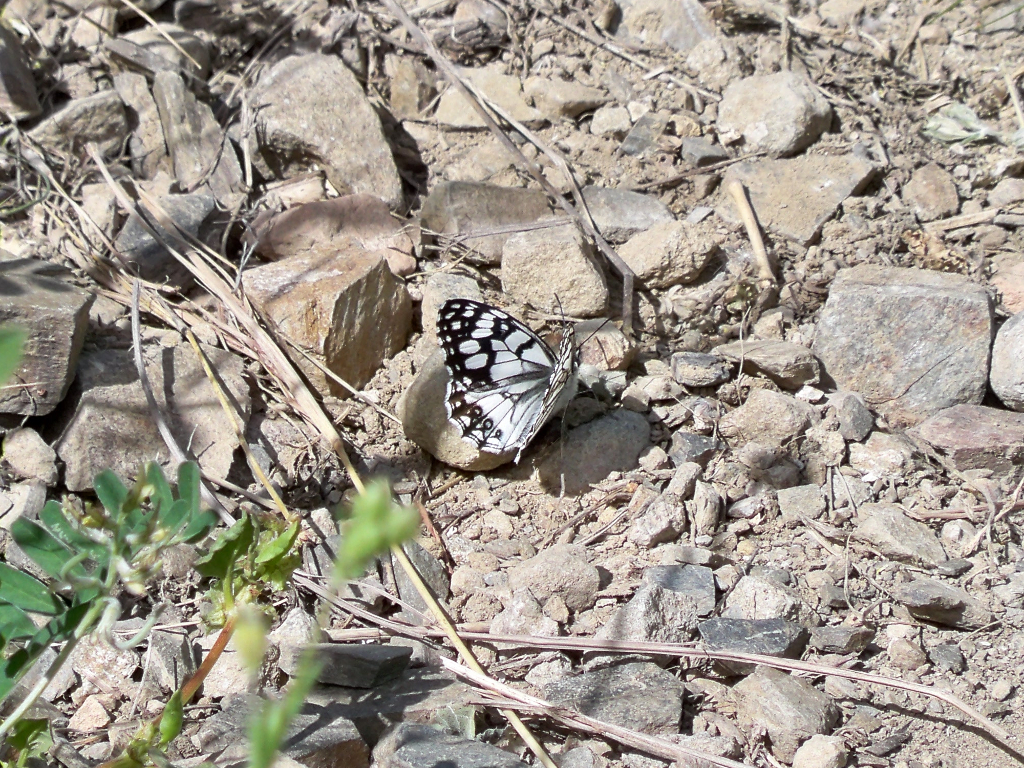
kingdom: Animalia
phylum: Arthropoda
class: Insecta
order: Lepidoptera
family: Nymphalidae
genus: Melanargia
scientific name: Melanargia ines
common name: Spanish marbled white
